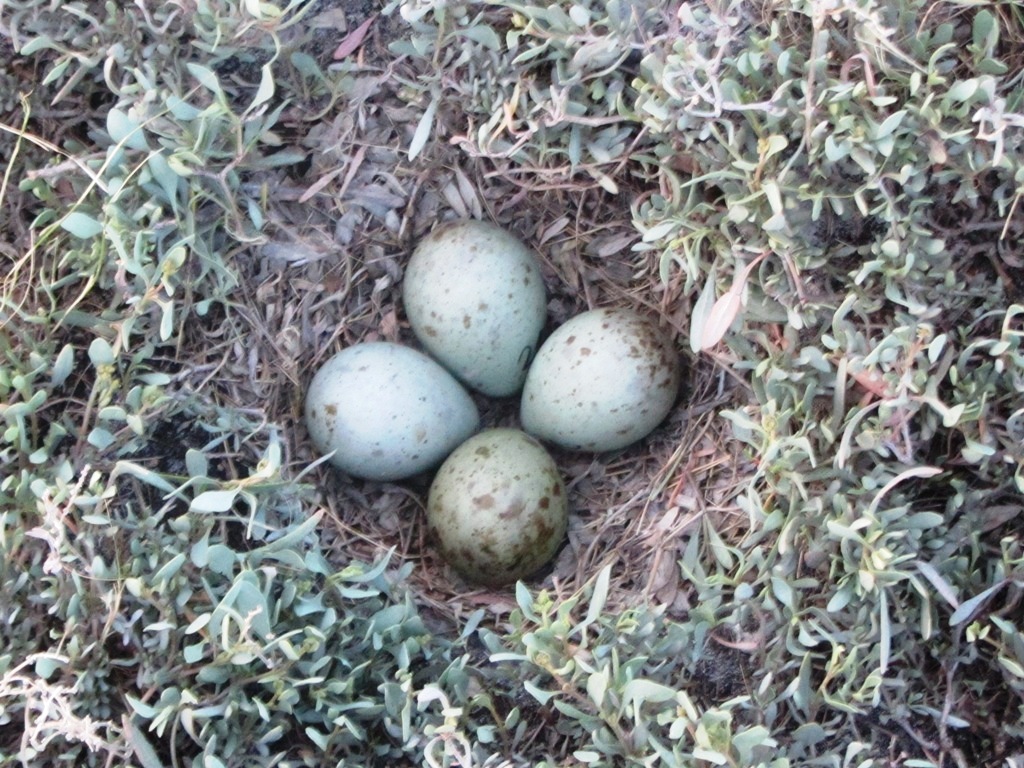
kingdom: Animalia
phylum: Chordata
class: Aves
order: Charadriiformes
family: Scolopacidae
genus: Limosa
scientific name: Limosa limosa
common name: Black-tailed godwit
